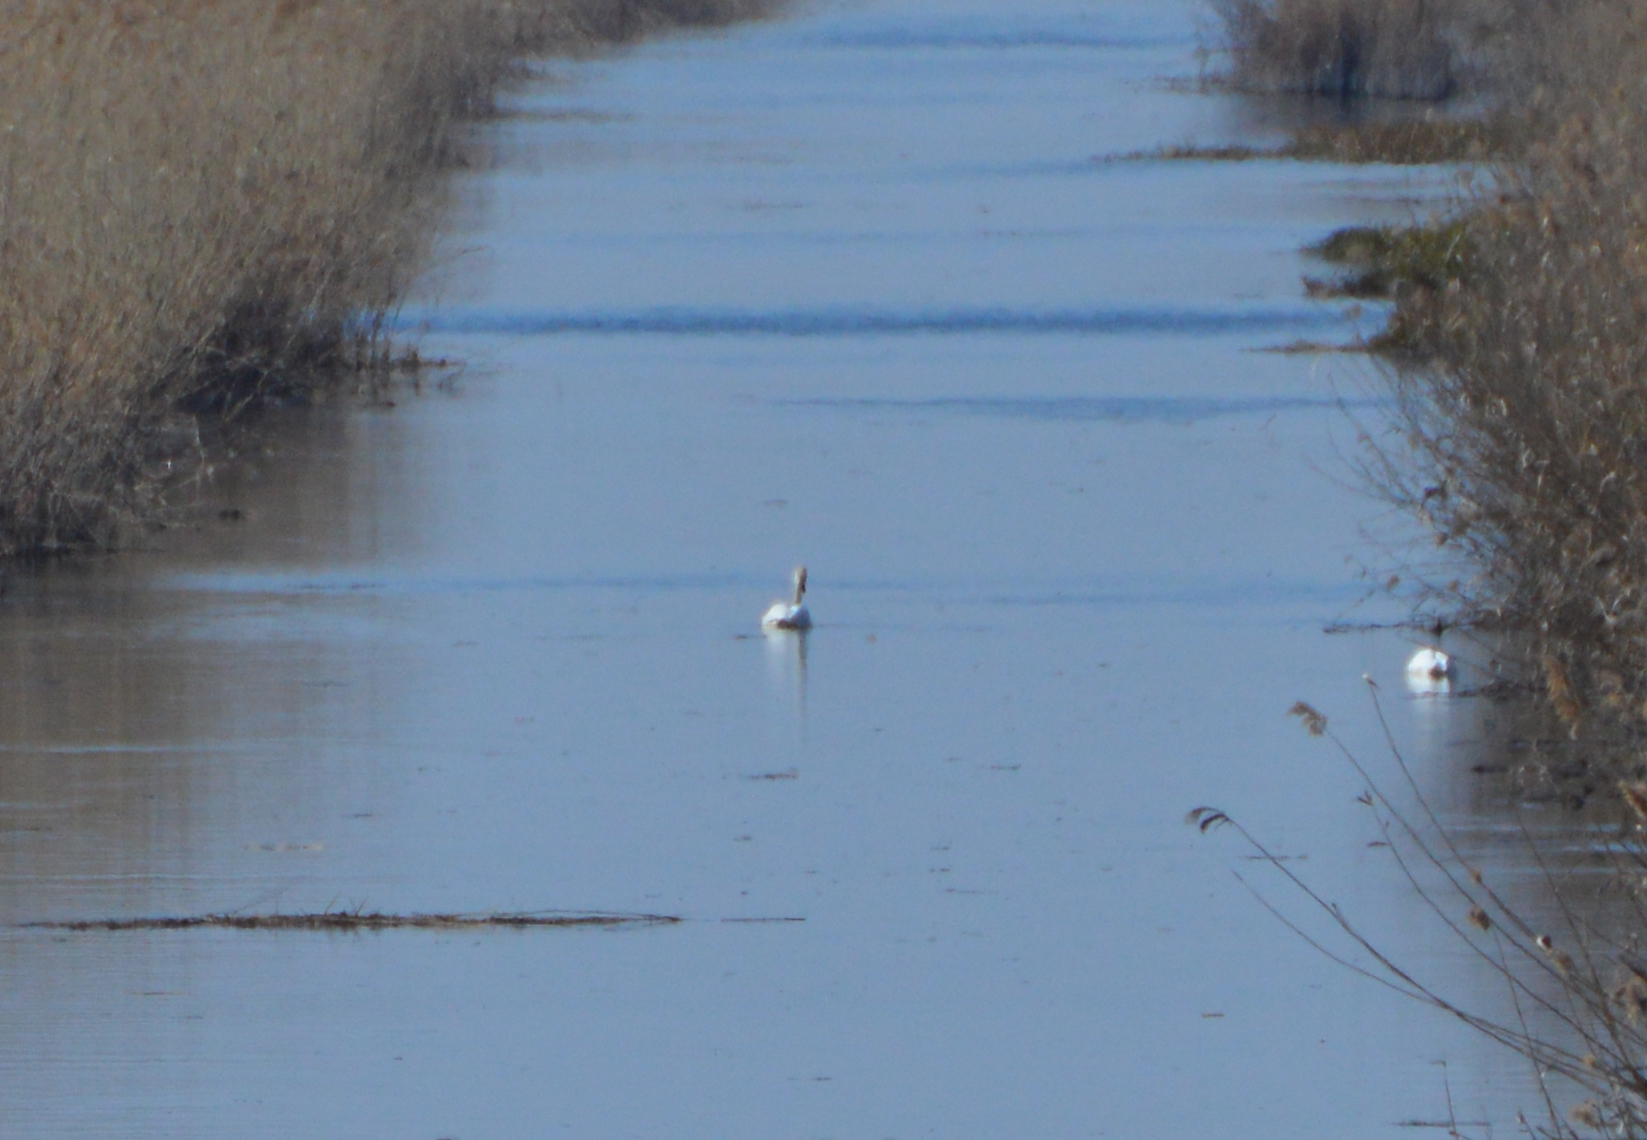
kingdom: Animalia
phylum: Chordata
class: Aves
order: Anseriformes
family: Anatidae
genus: Cygnus
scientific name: Cygnus olor
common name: Mute swan
